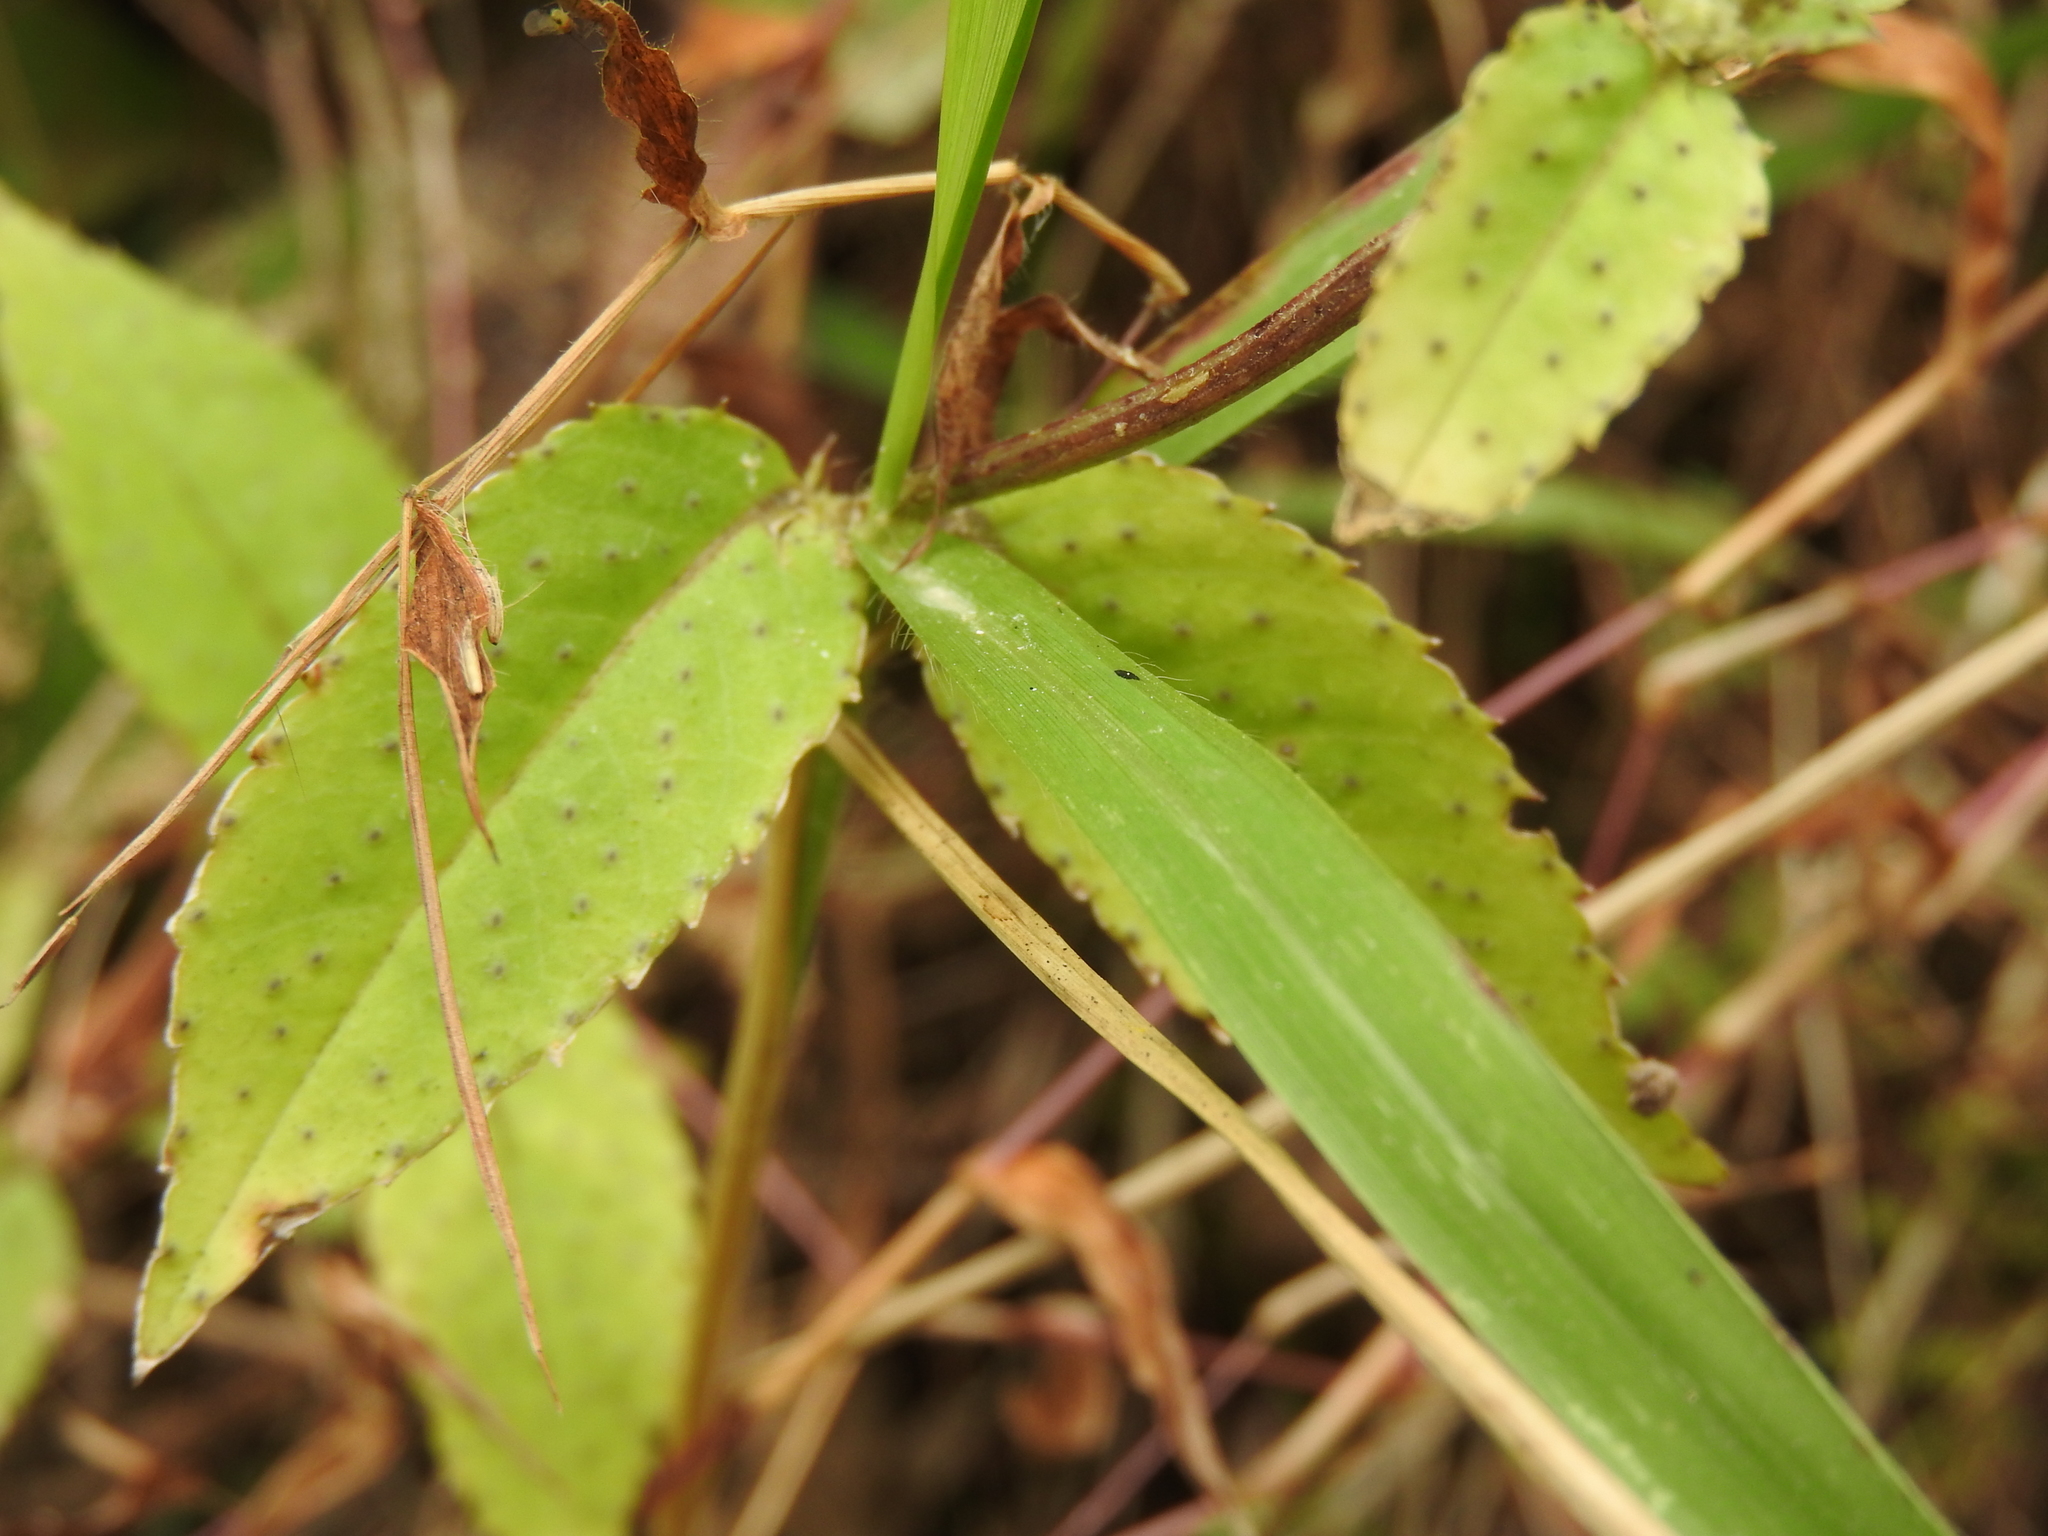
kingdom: Plantae
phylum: Tracheophyta
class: Magnoliopsida
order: Asterales
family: Asteraceae
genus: Pseudogynoxys
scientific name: Pseudogynoxys haenkei
